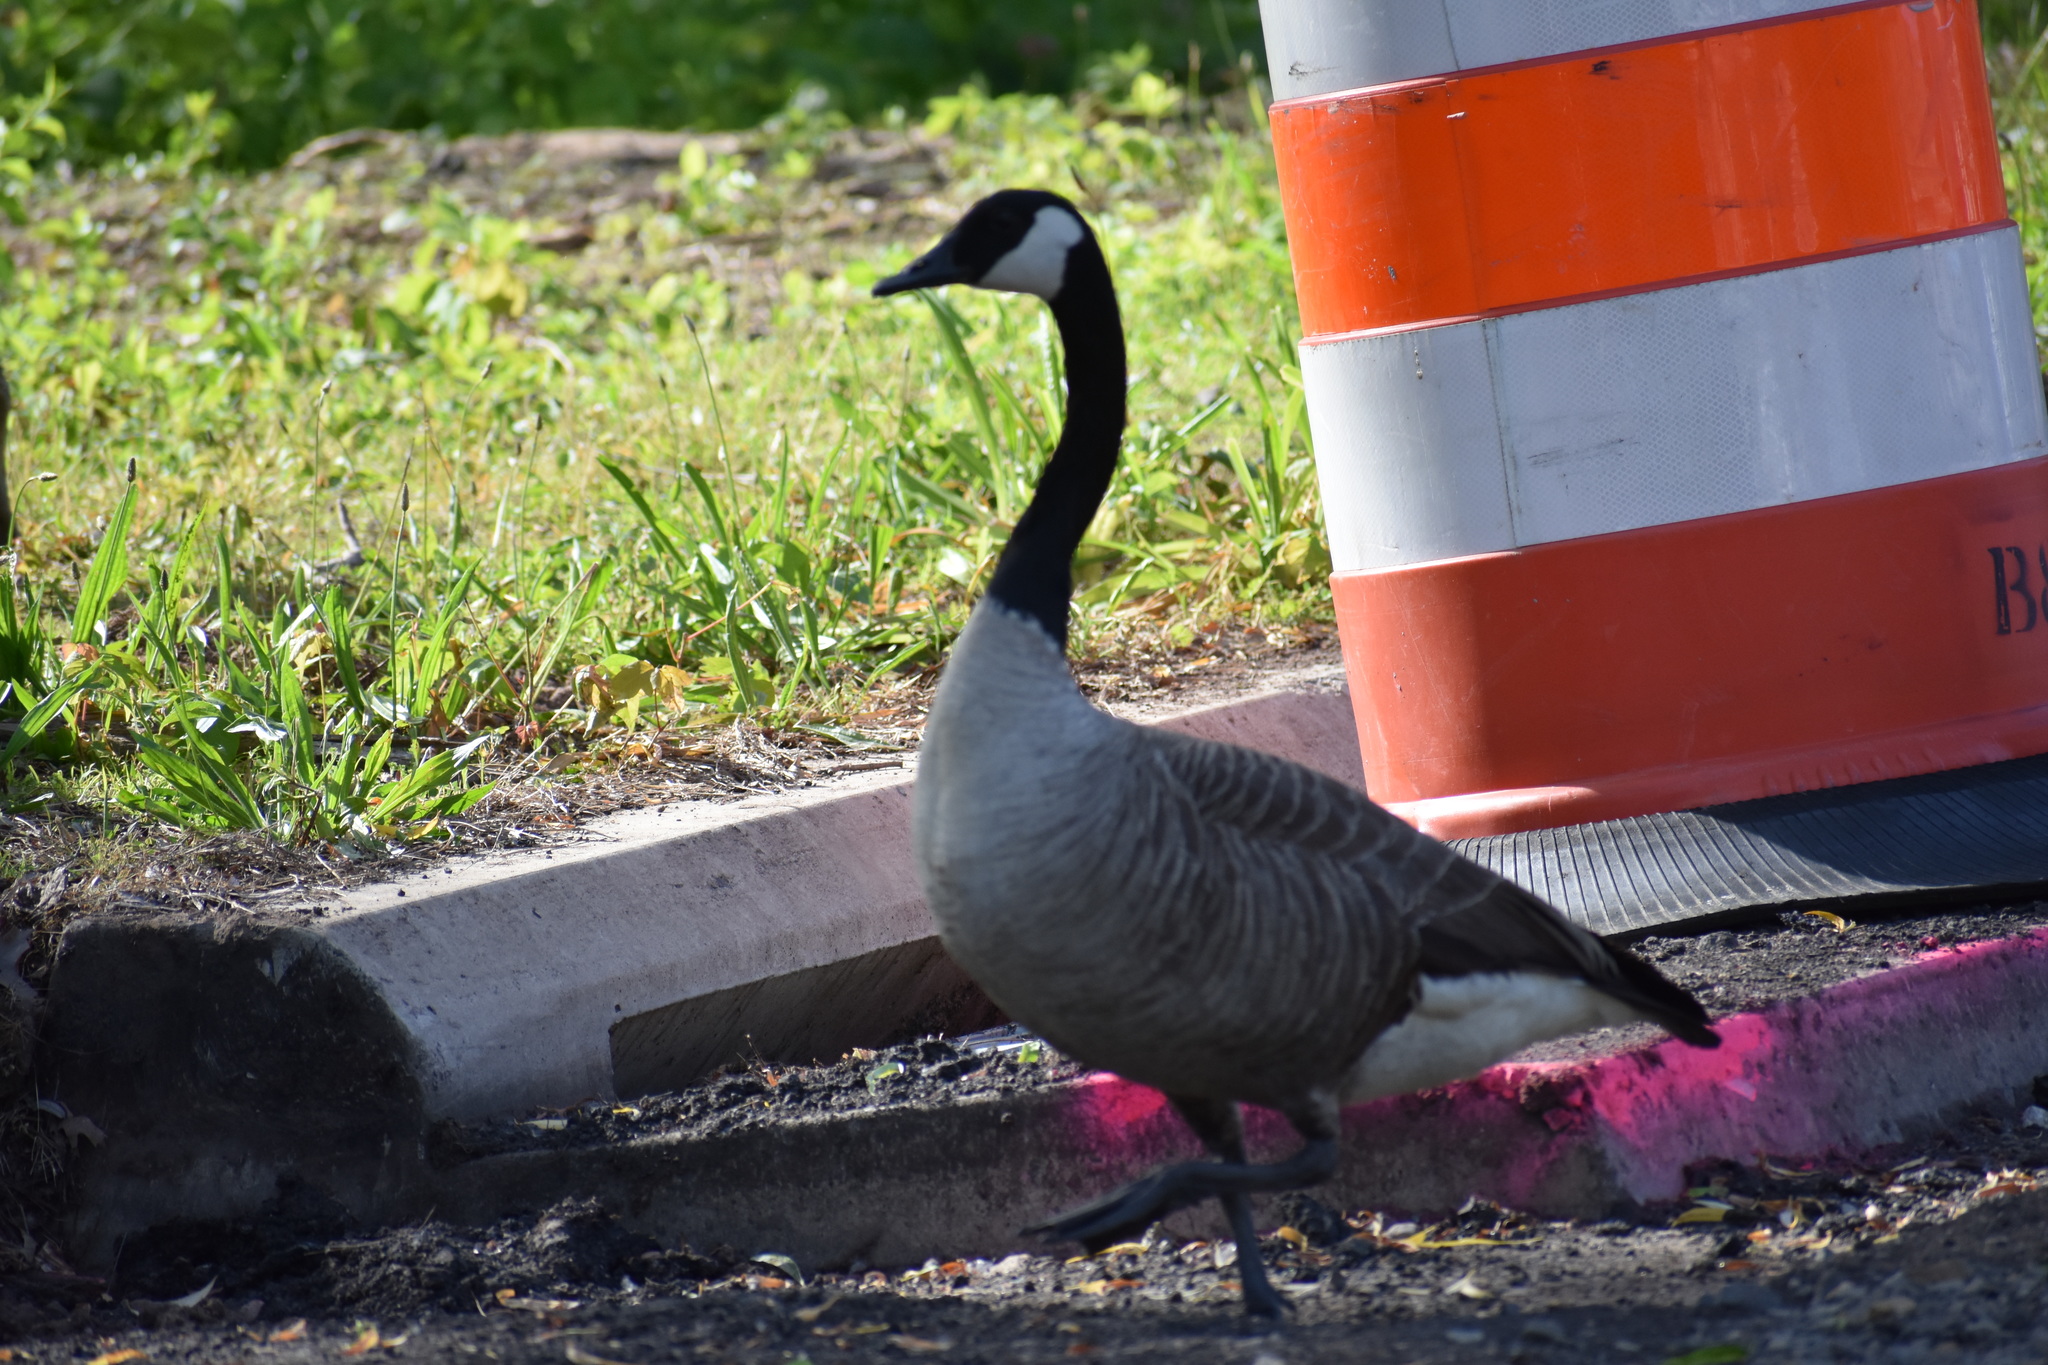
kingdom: Animalia
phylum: Chordata
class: Aves
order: Anseriformes
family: Anatidae
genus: Branta
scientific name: Branta canadensis
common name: Canada goose
